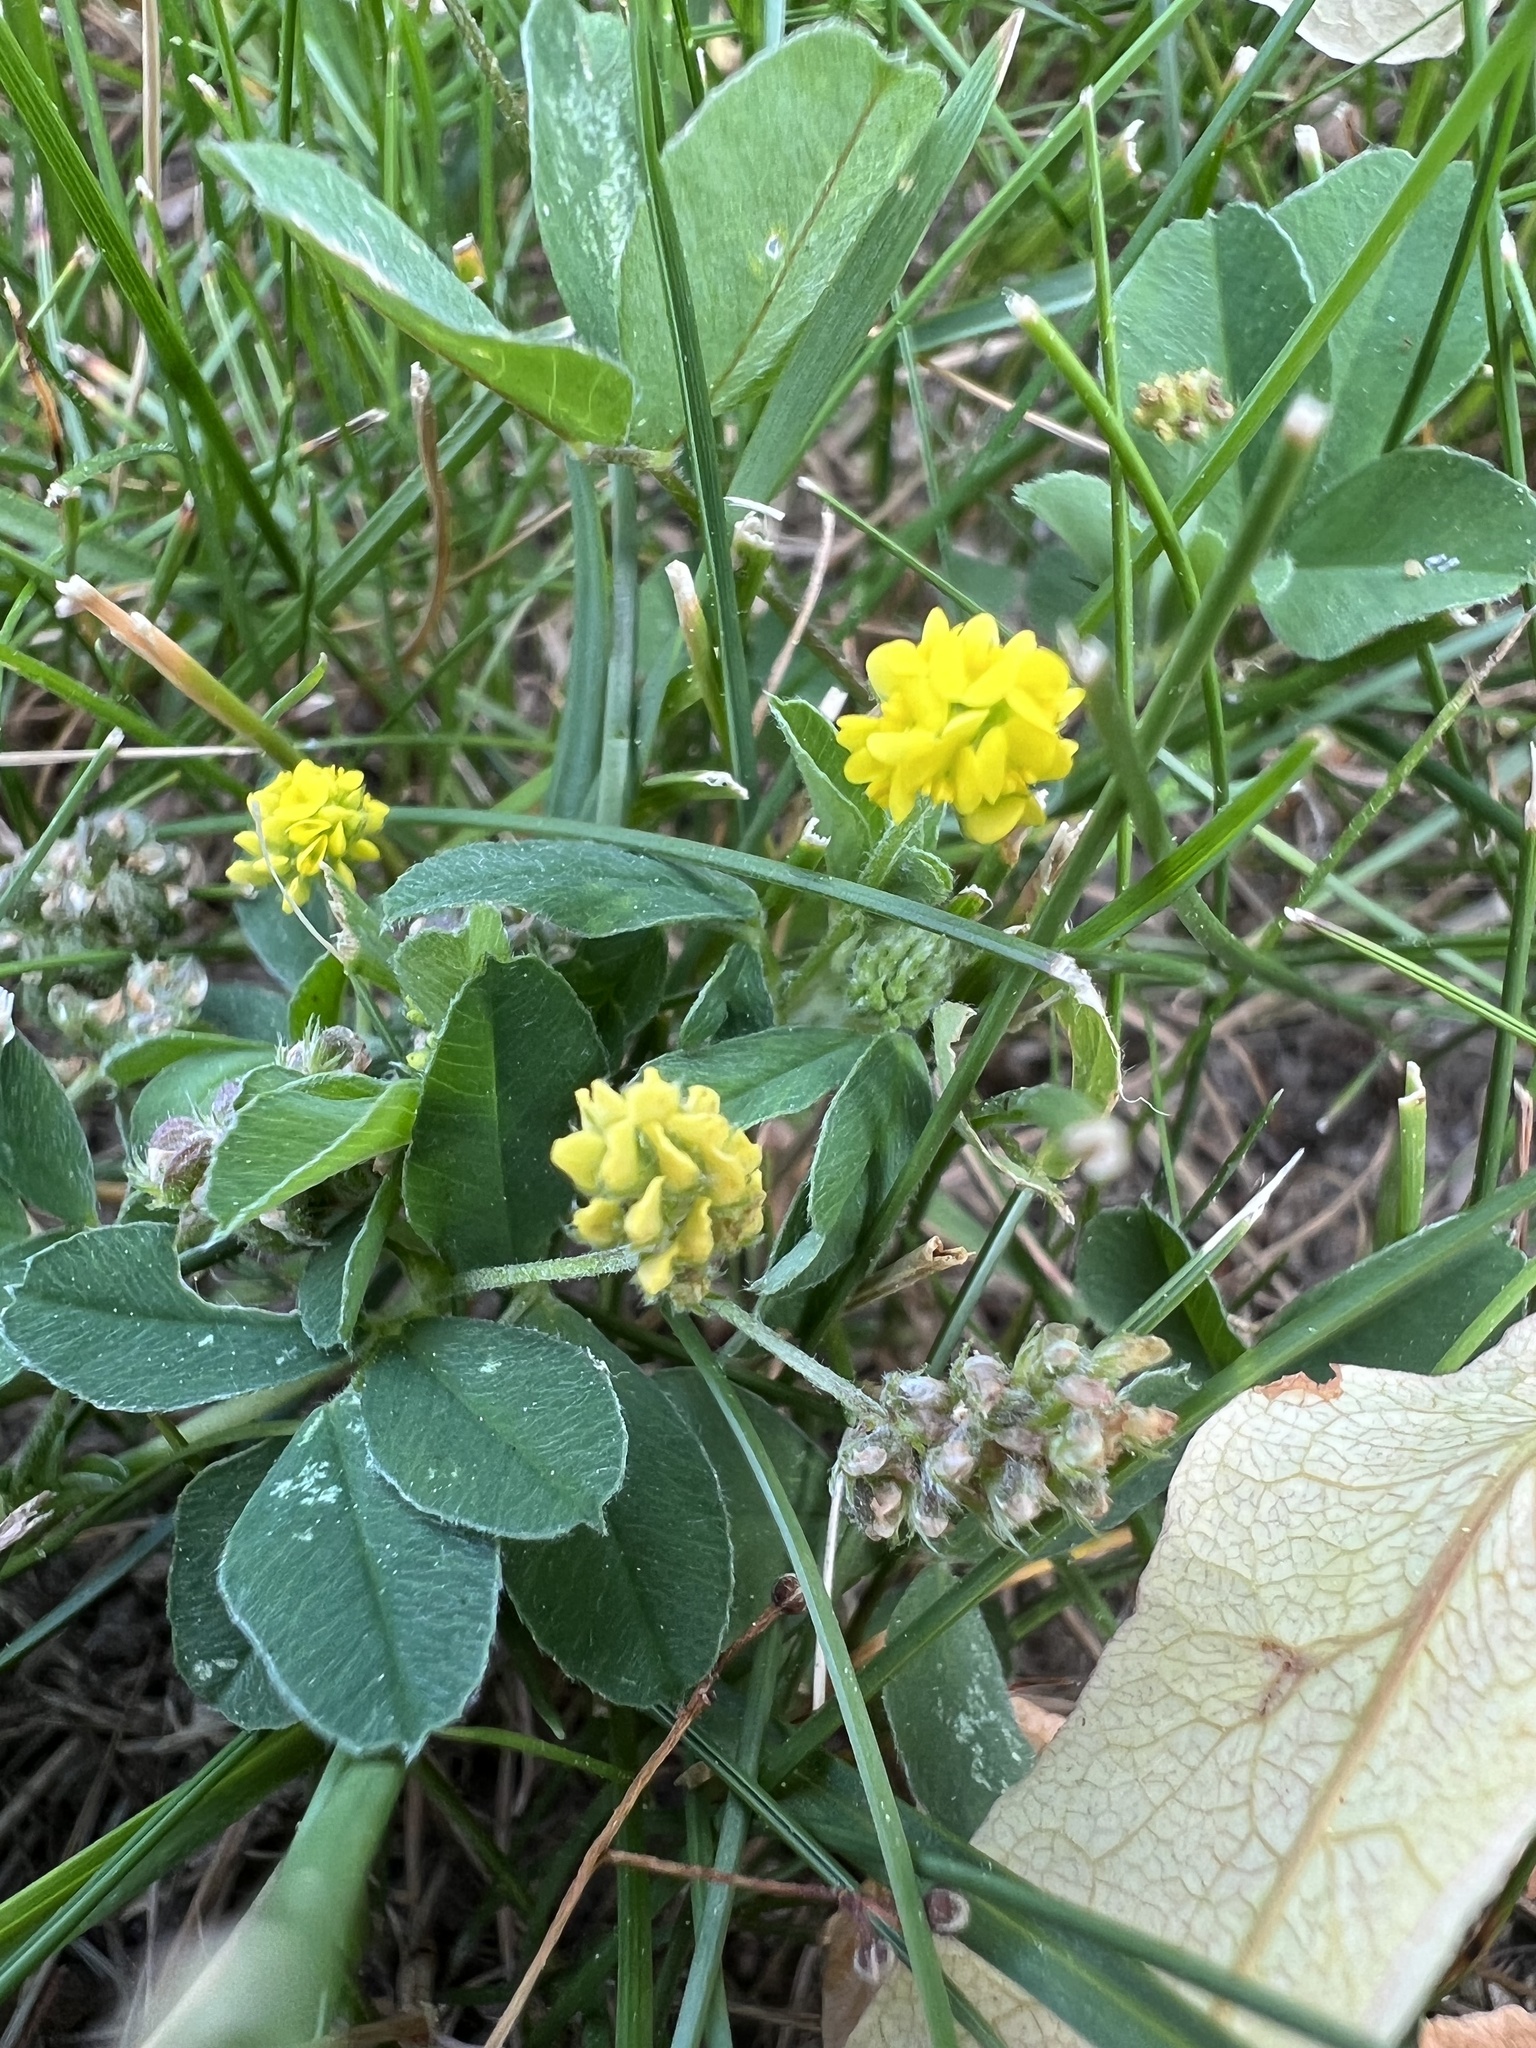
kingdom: Plantae
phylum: Tracheophyta
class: Magnoliopsida
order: Fabales
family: Fabaceae
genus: Medicago
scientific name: Medicago lupulina
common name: Black medick
